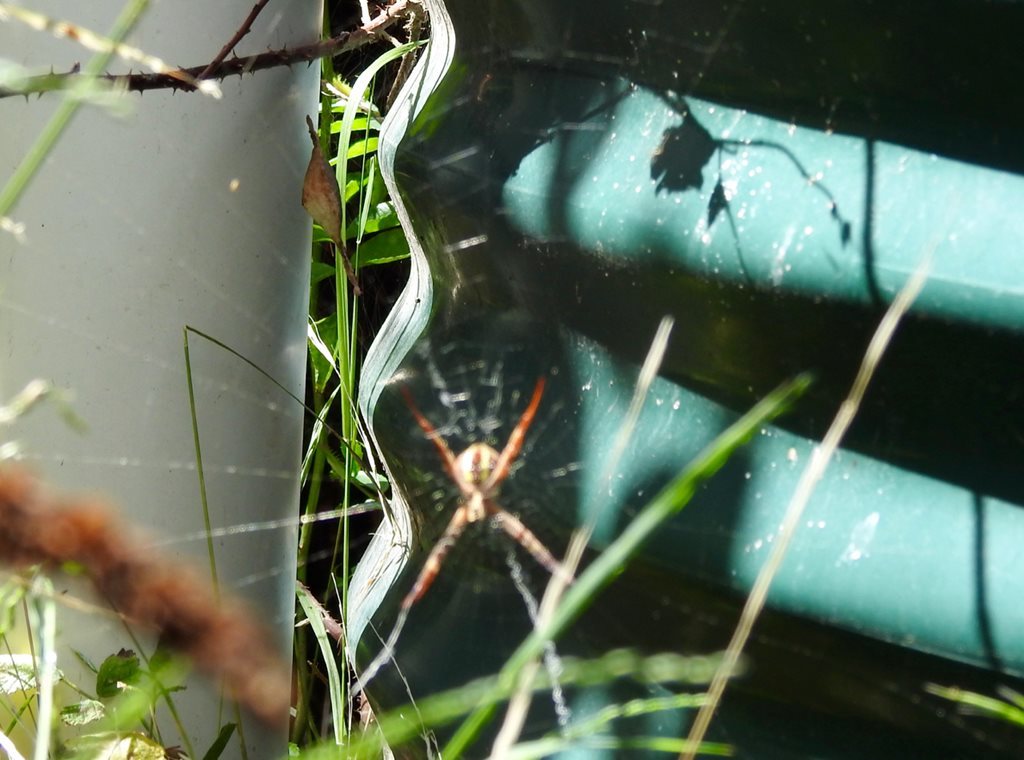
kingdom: Animalia
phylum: Arthropoda
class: Arachnida
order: Araneae
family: Araneidae
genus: Argiope
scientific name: Argiope keyserlingi
